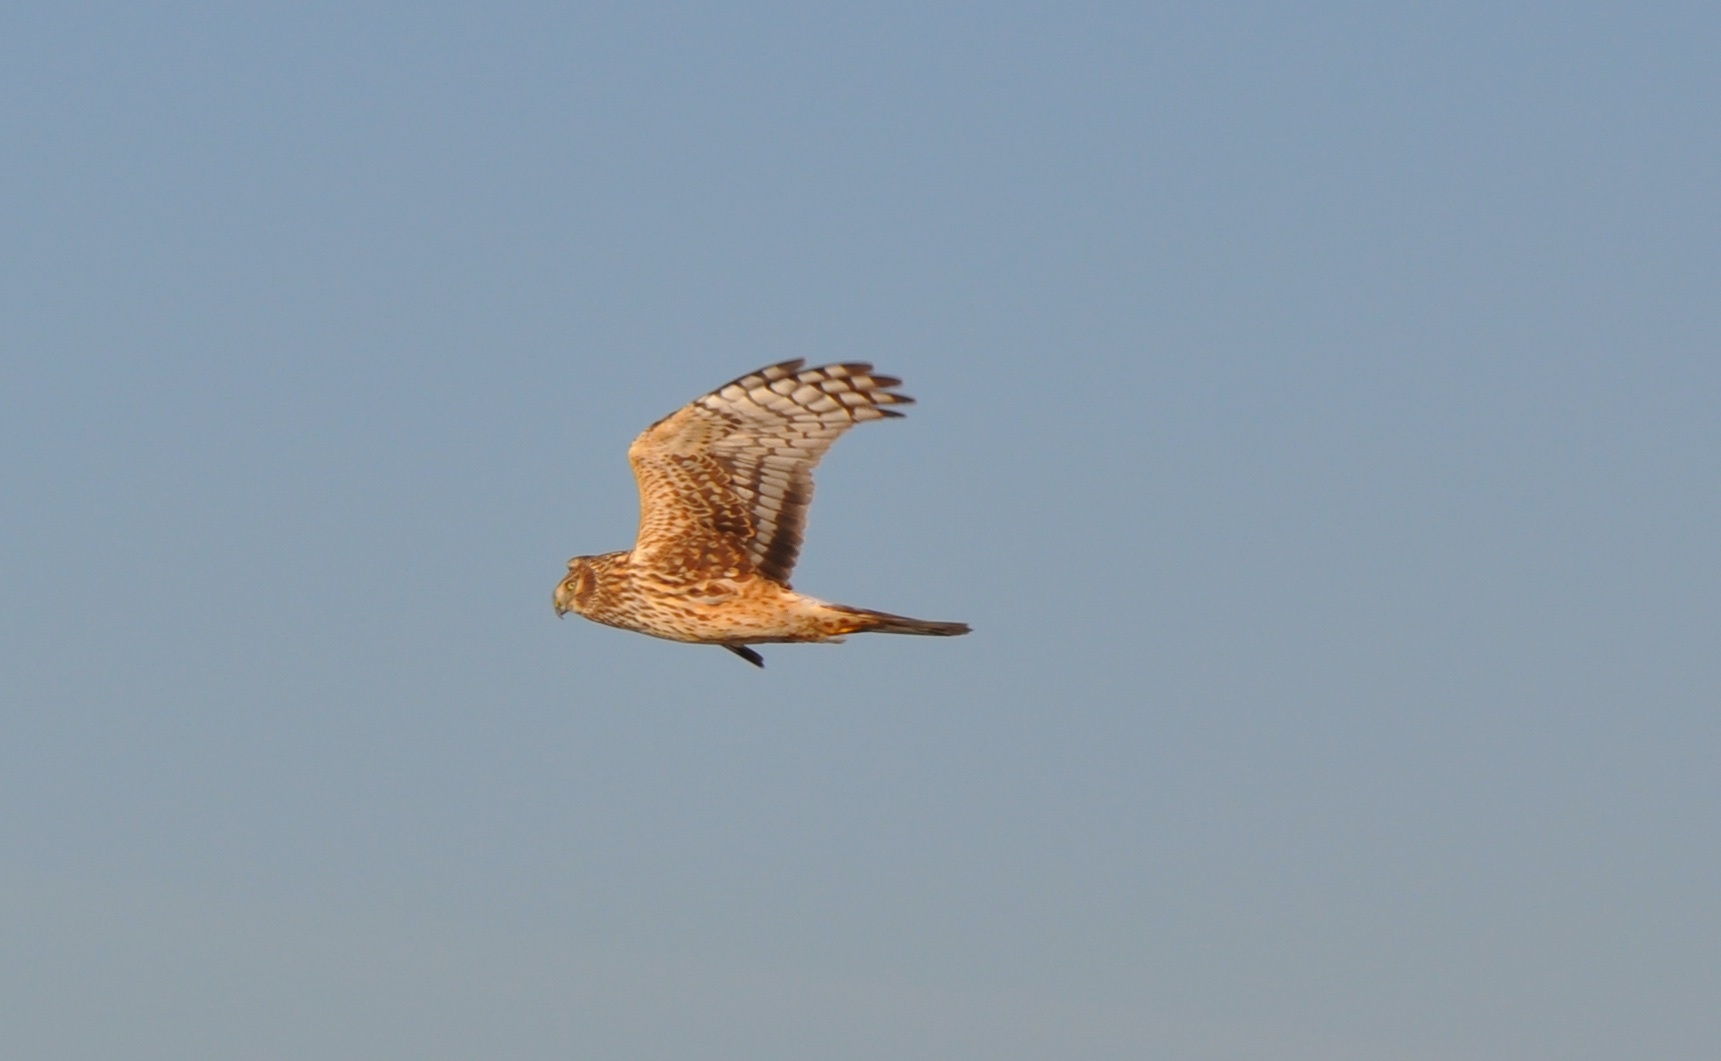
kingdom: Animalia
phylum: Chordata
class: Aves
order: Accipitriformes
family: Accipitridae
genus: Circus
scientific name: Circus cyaneus
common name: Hen harrier
